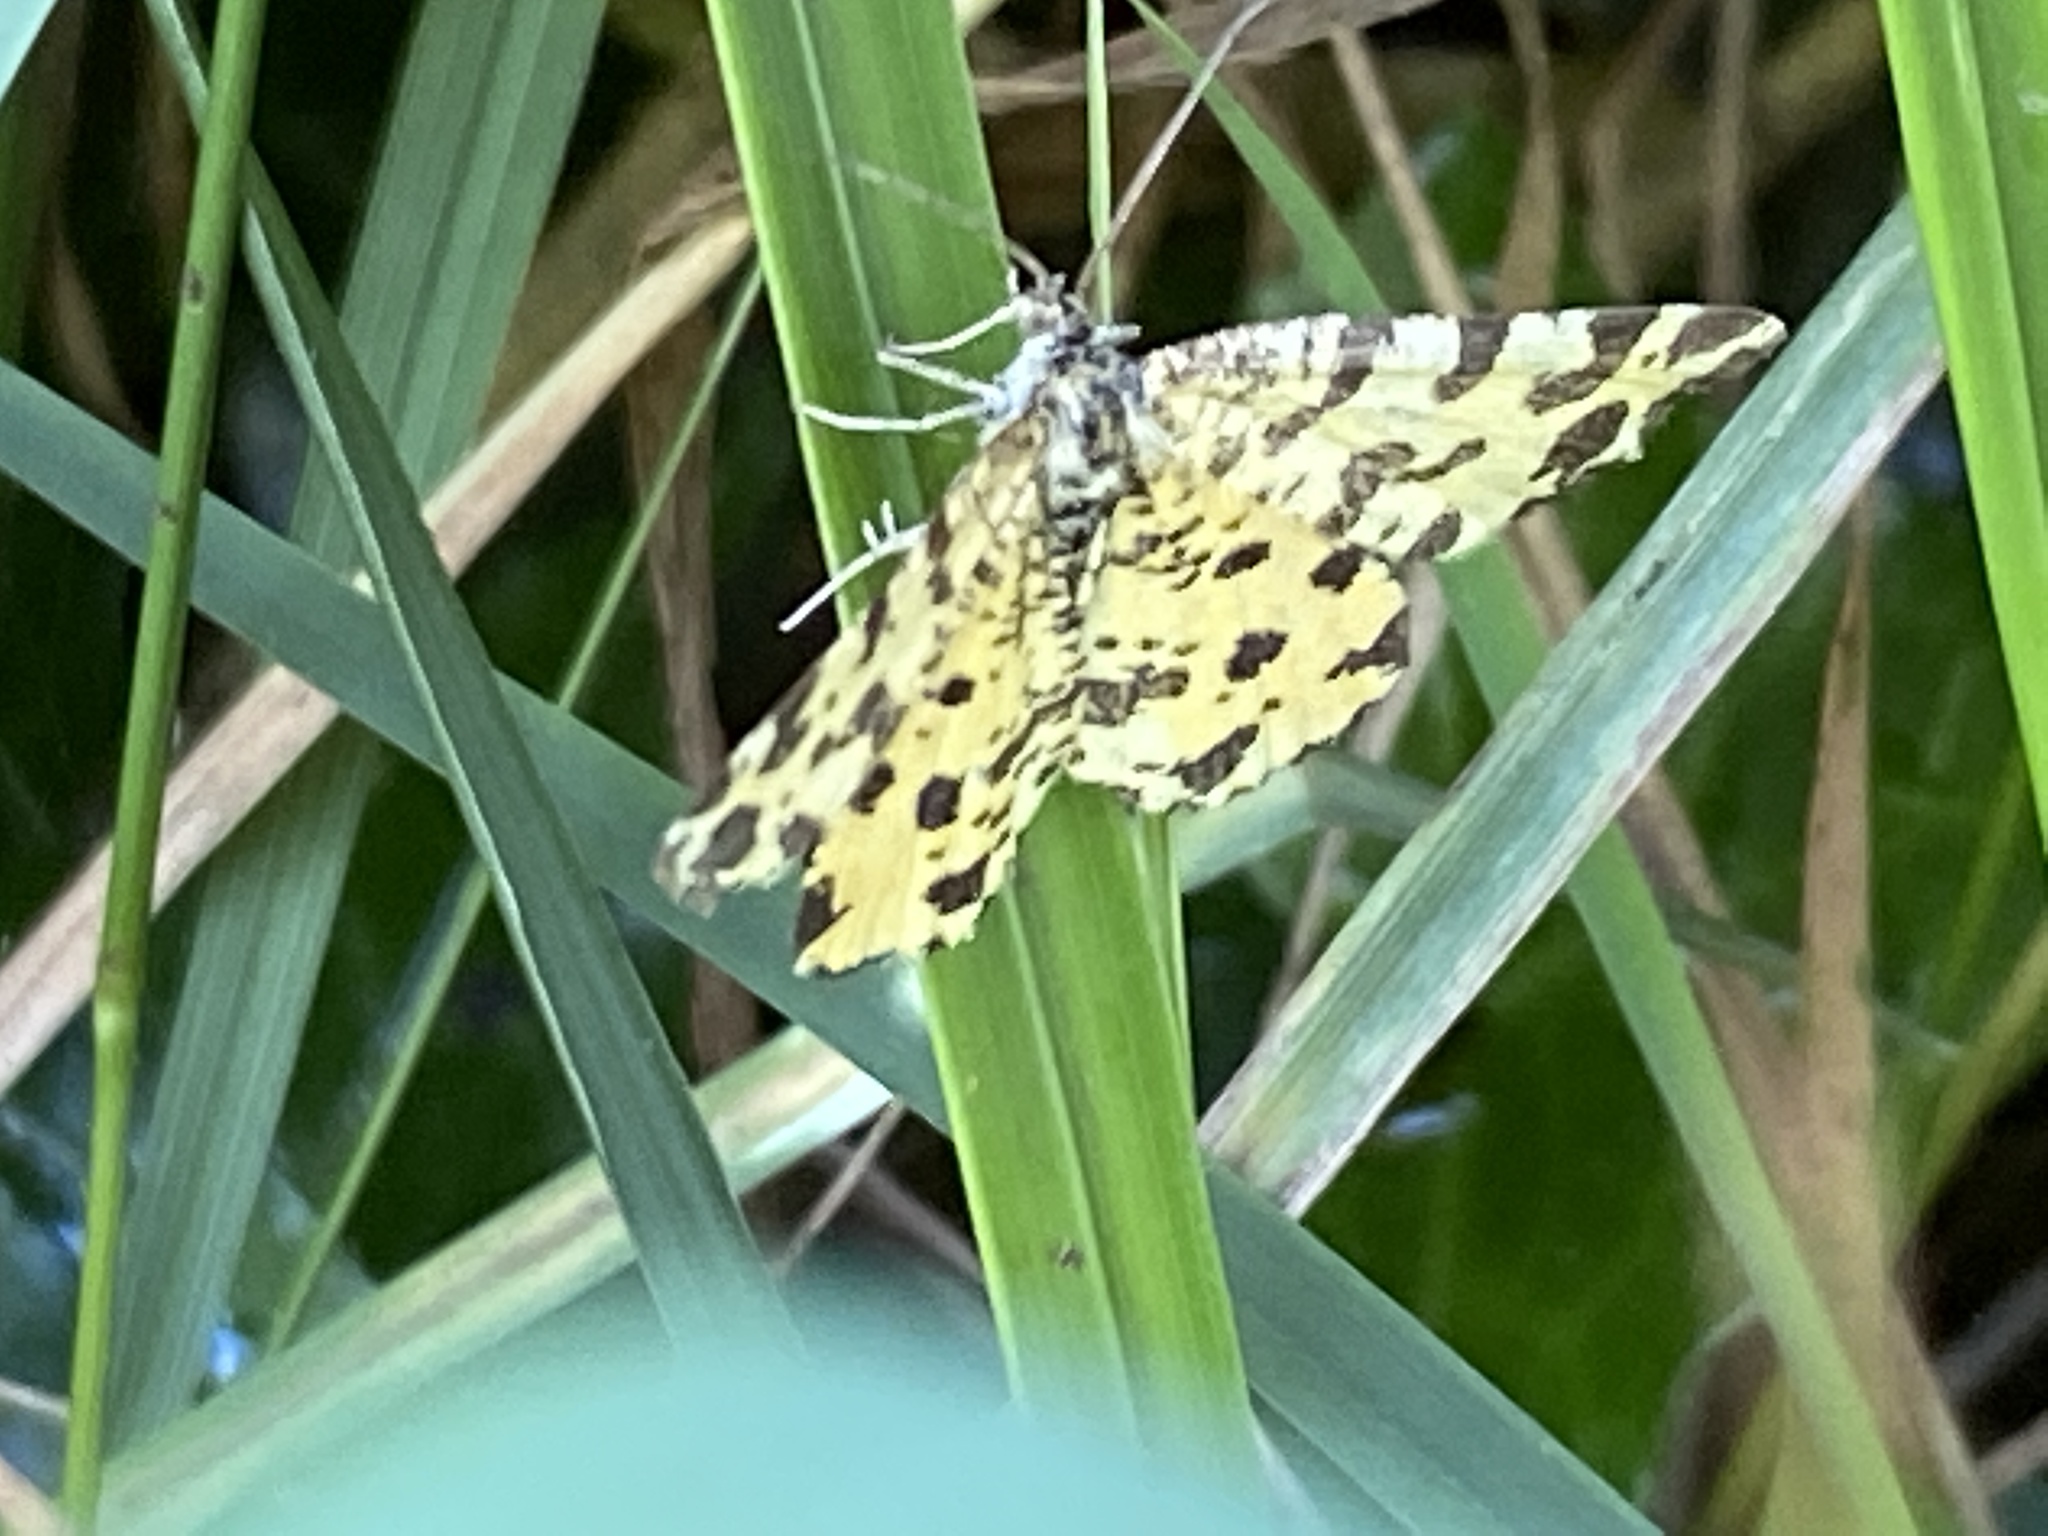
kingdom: Animalia
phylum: Arthropoda
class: Insecta
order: Lepidoptera
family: Geometridae
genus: Pseudopanthera
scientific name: Pseudopanthera macularia
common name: Speckled yellow
